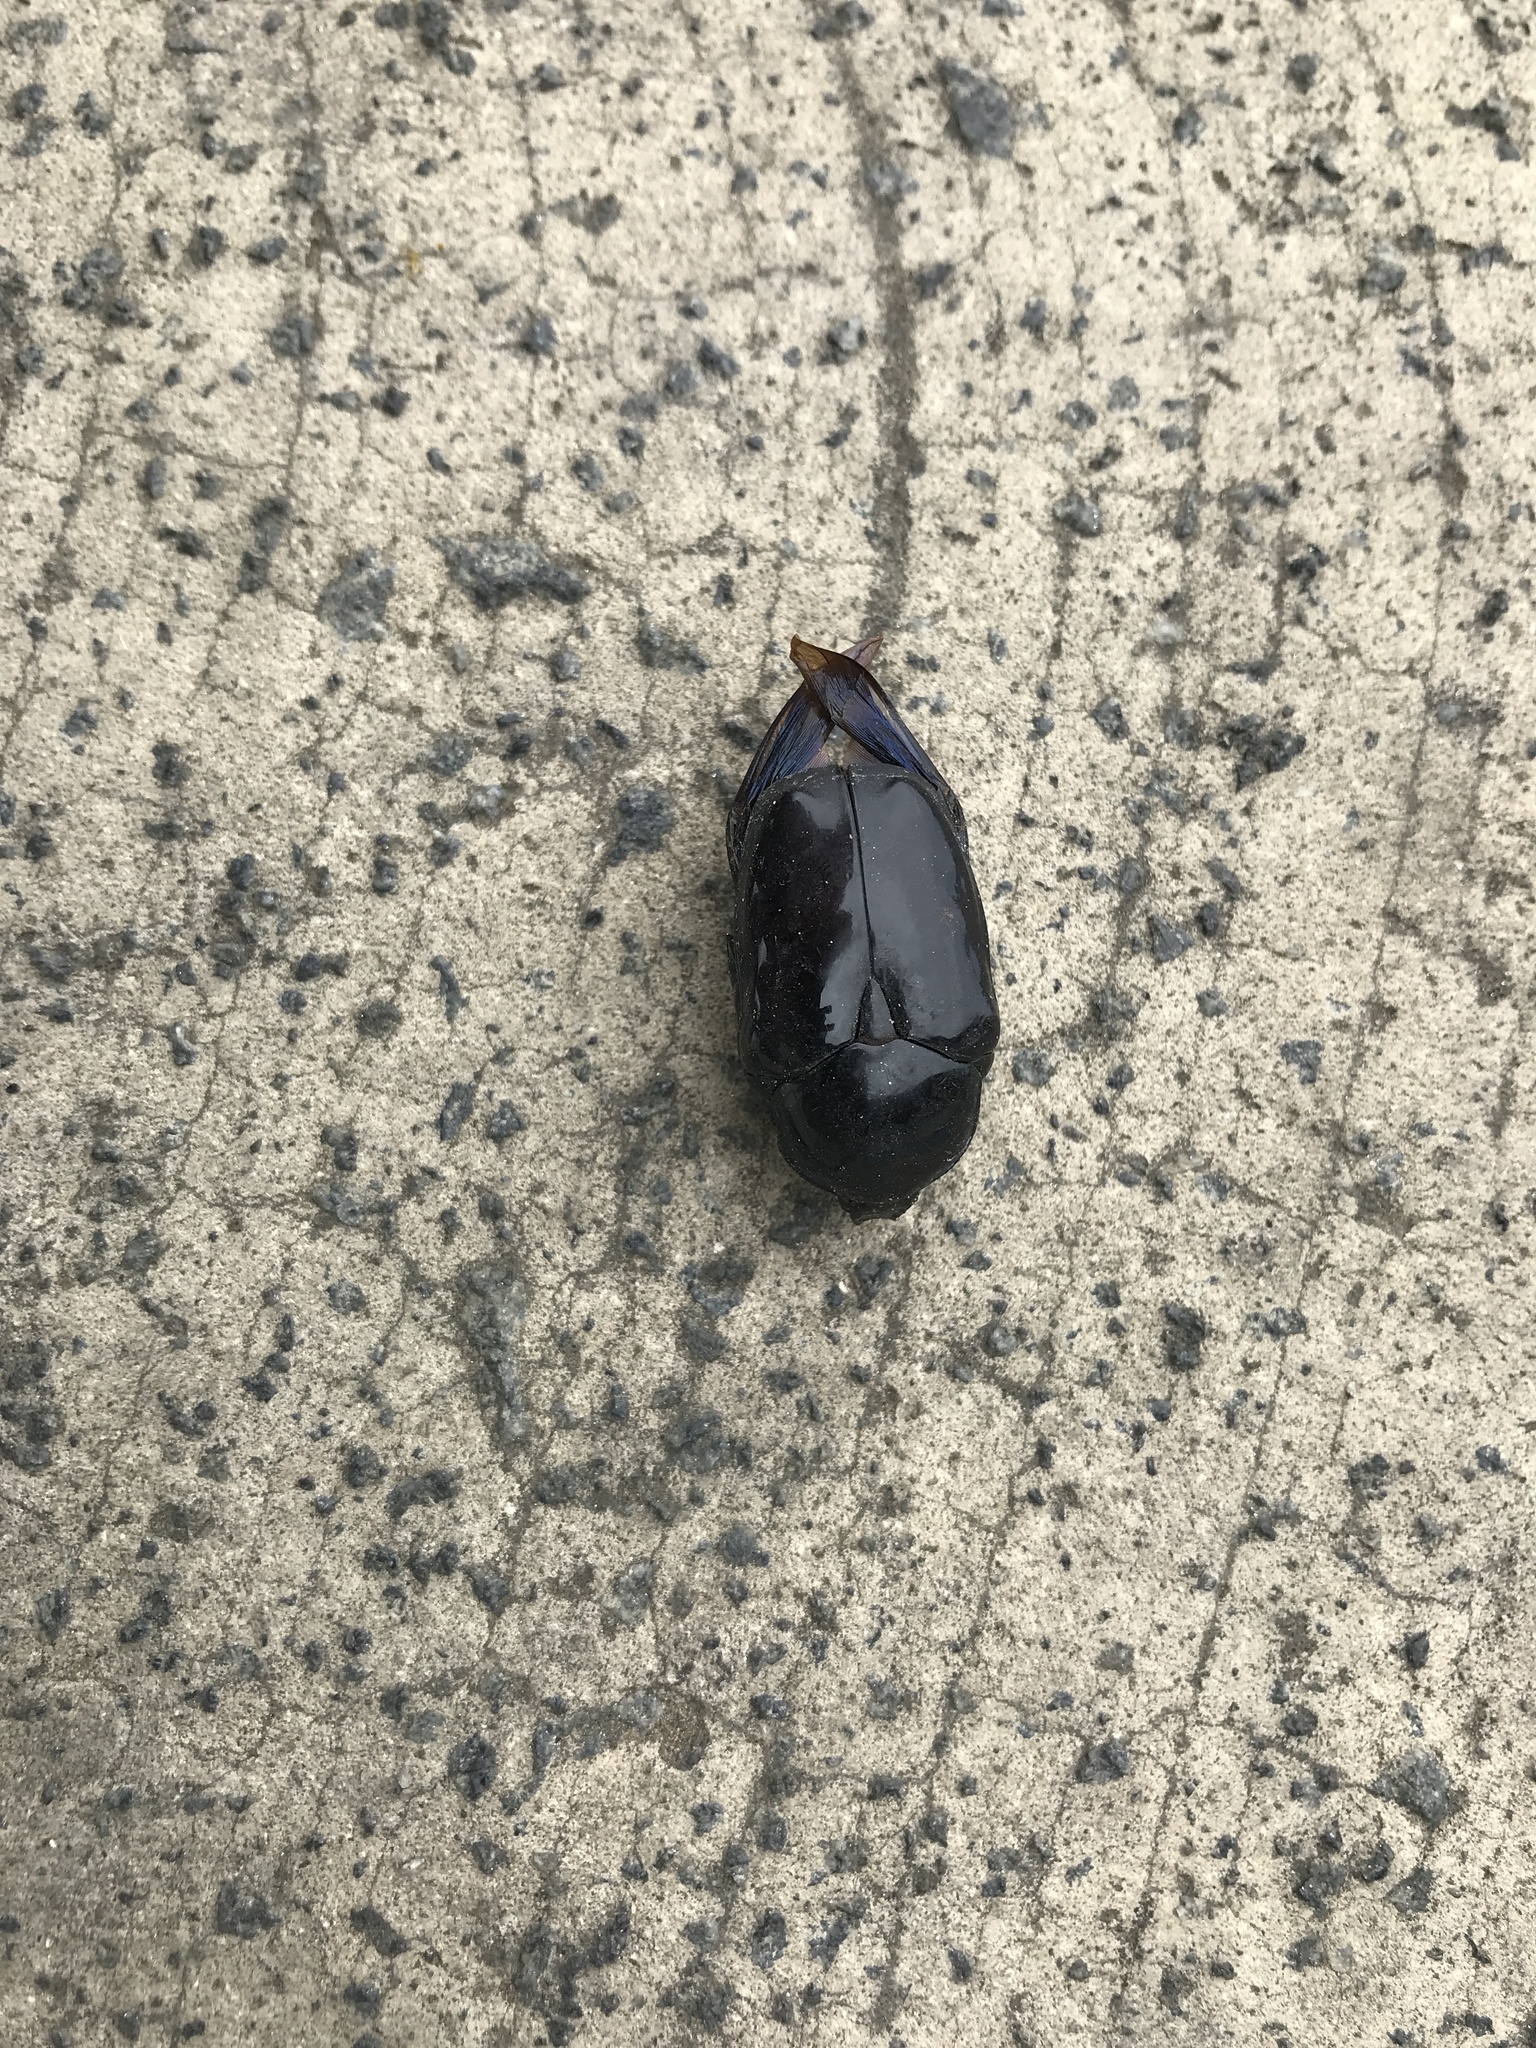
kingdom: Animalia
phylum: Arthropoda
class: Insecta
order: Coleoptera
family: Scarabaeidae
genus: Diplognatha
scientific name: Diplognatha gagates
